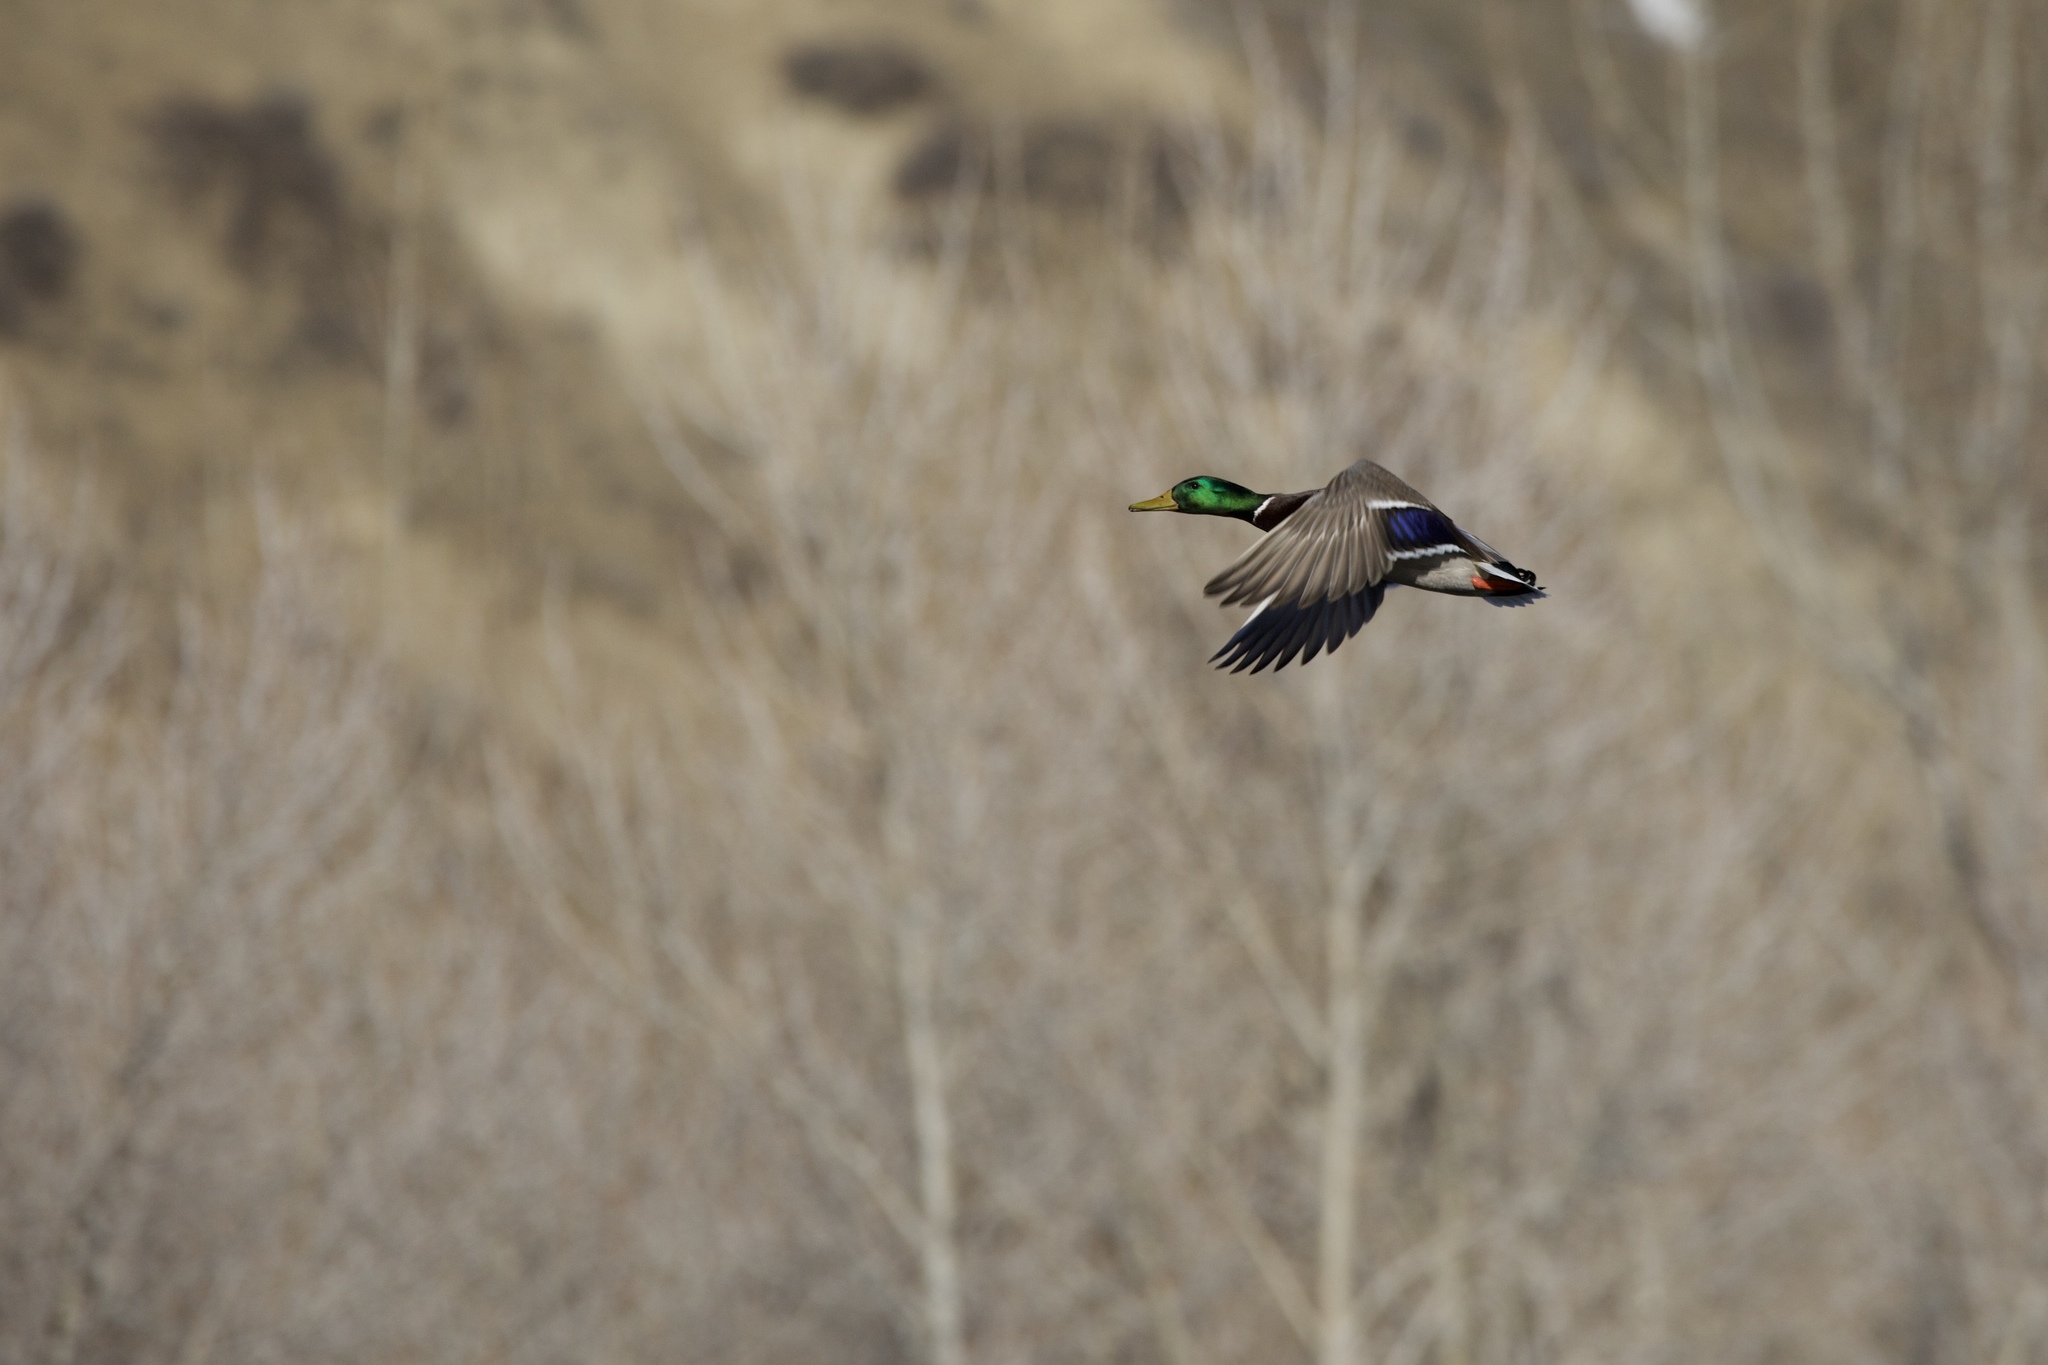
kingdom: Animalia
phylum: Chordata
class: Aves
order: Anseriformes
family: Anatidae
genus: Anas
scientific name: Anas platyrhynchos
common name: Mallard
